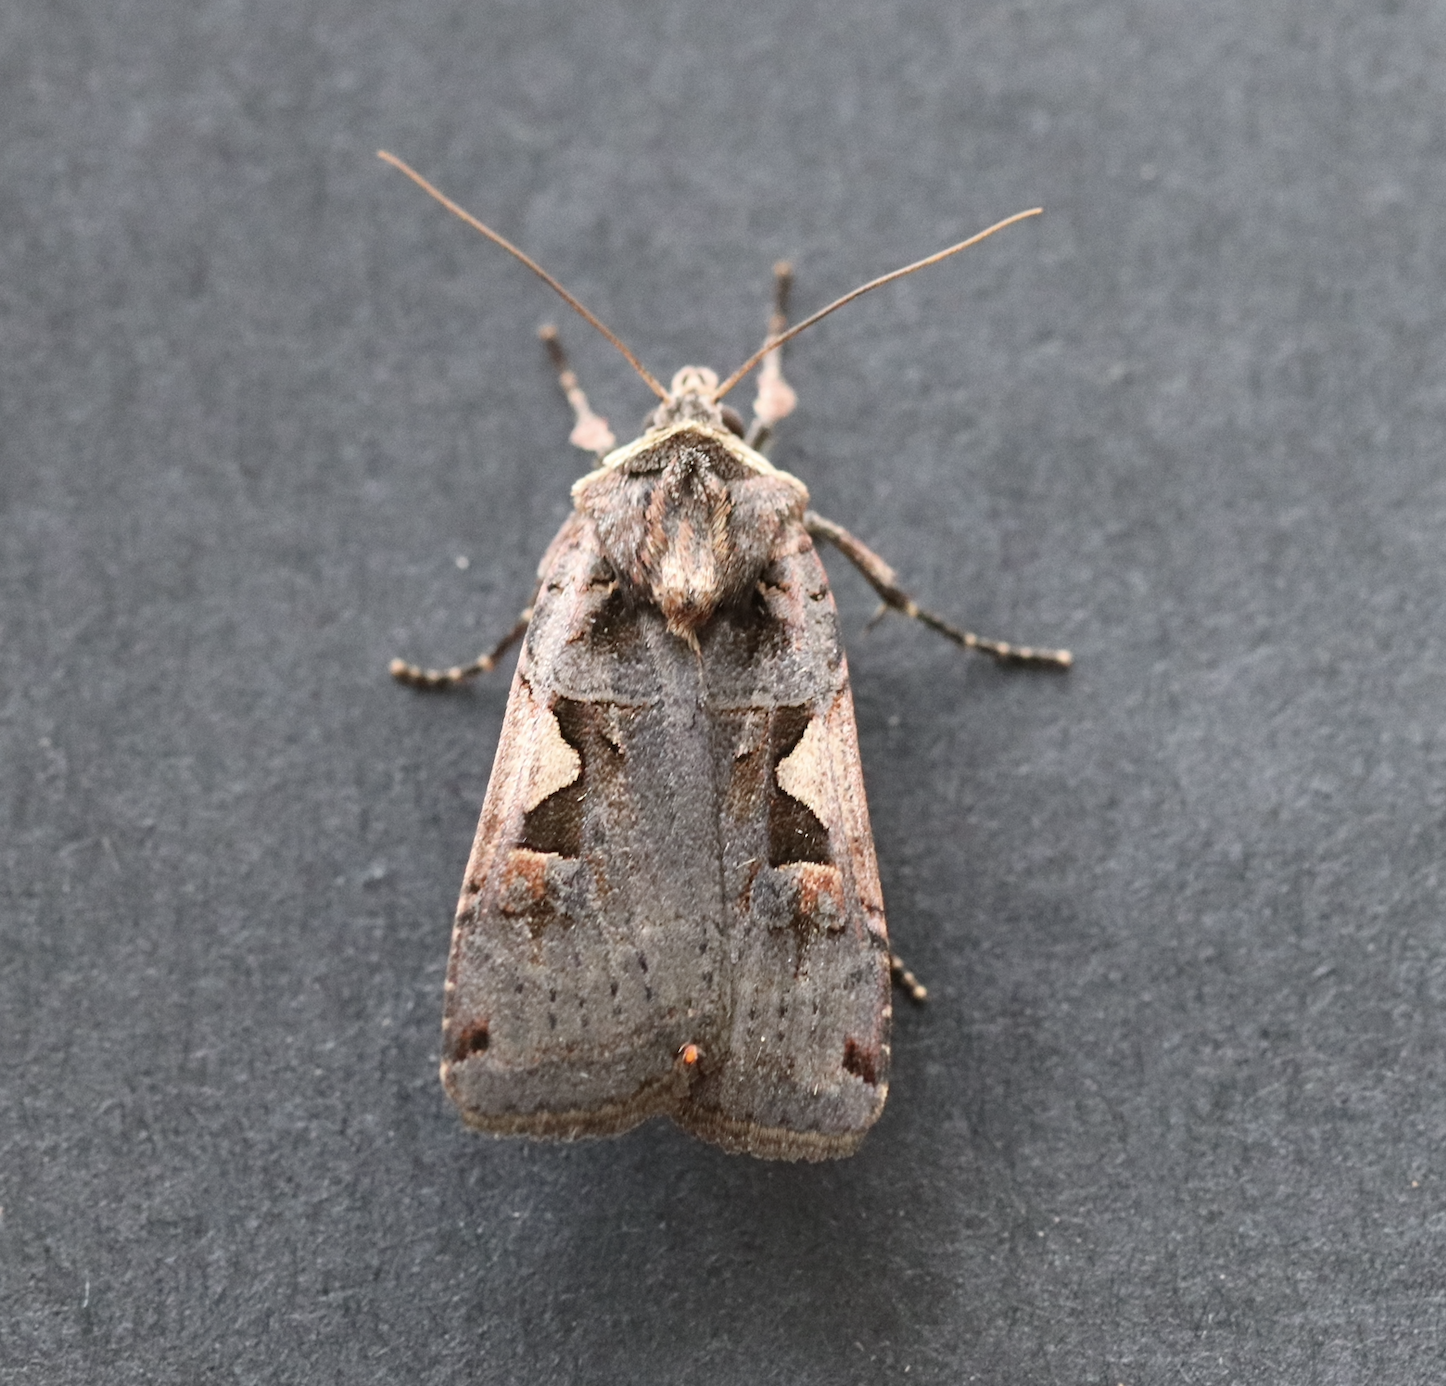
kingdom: Animalia
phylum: Arthropoda
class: Insecta
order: Lepidoptera
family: Noctuidae
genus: Xestia
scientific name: Xestia c-nigrum
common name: Setaceous hebrew character
